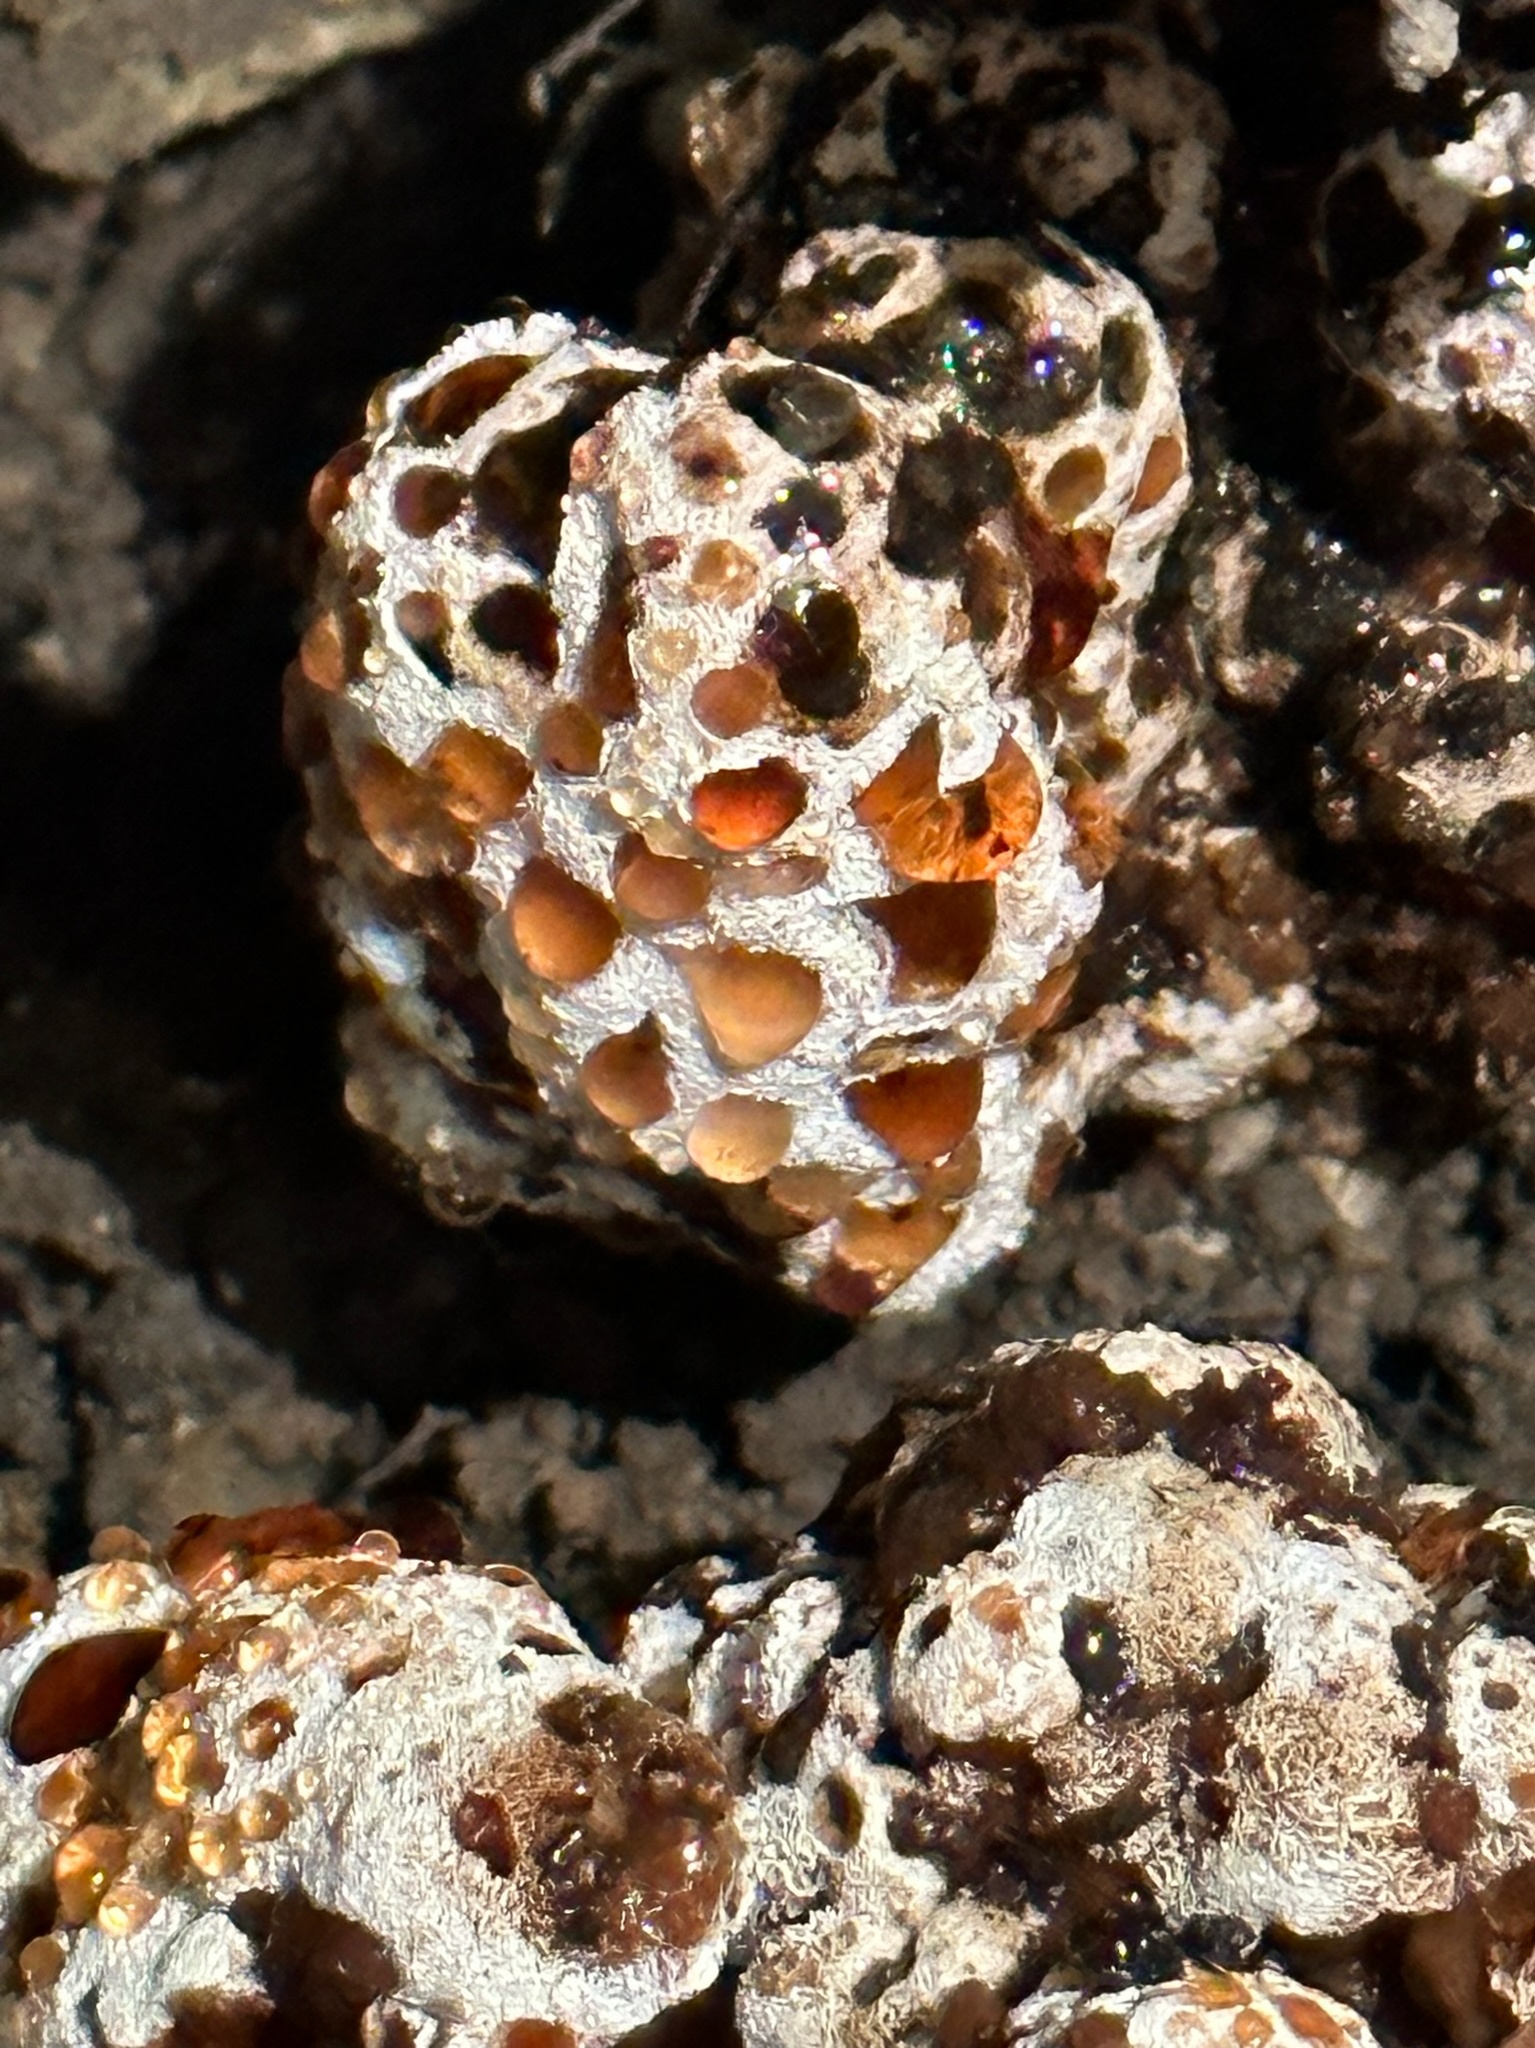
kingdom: Fungi
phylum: Basidiomycota
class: Agaricomycetes
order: Polyporales
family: Podoscyphaceae
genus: Abortiporus
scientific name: Abortiporus biennis
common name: Blushing rosette
